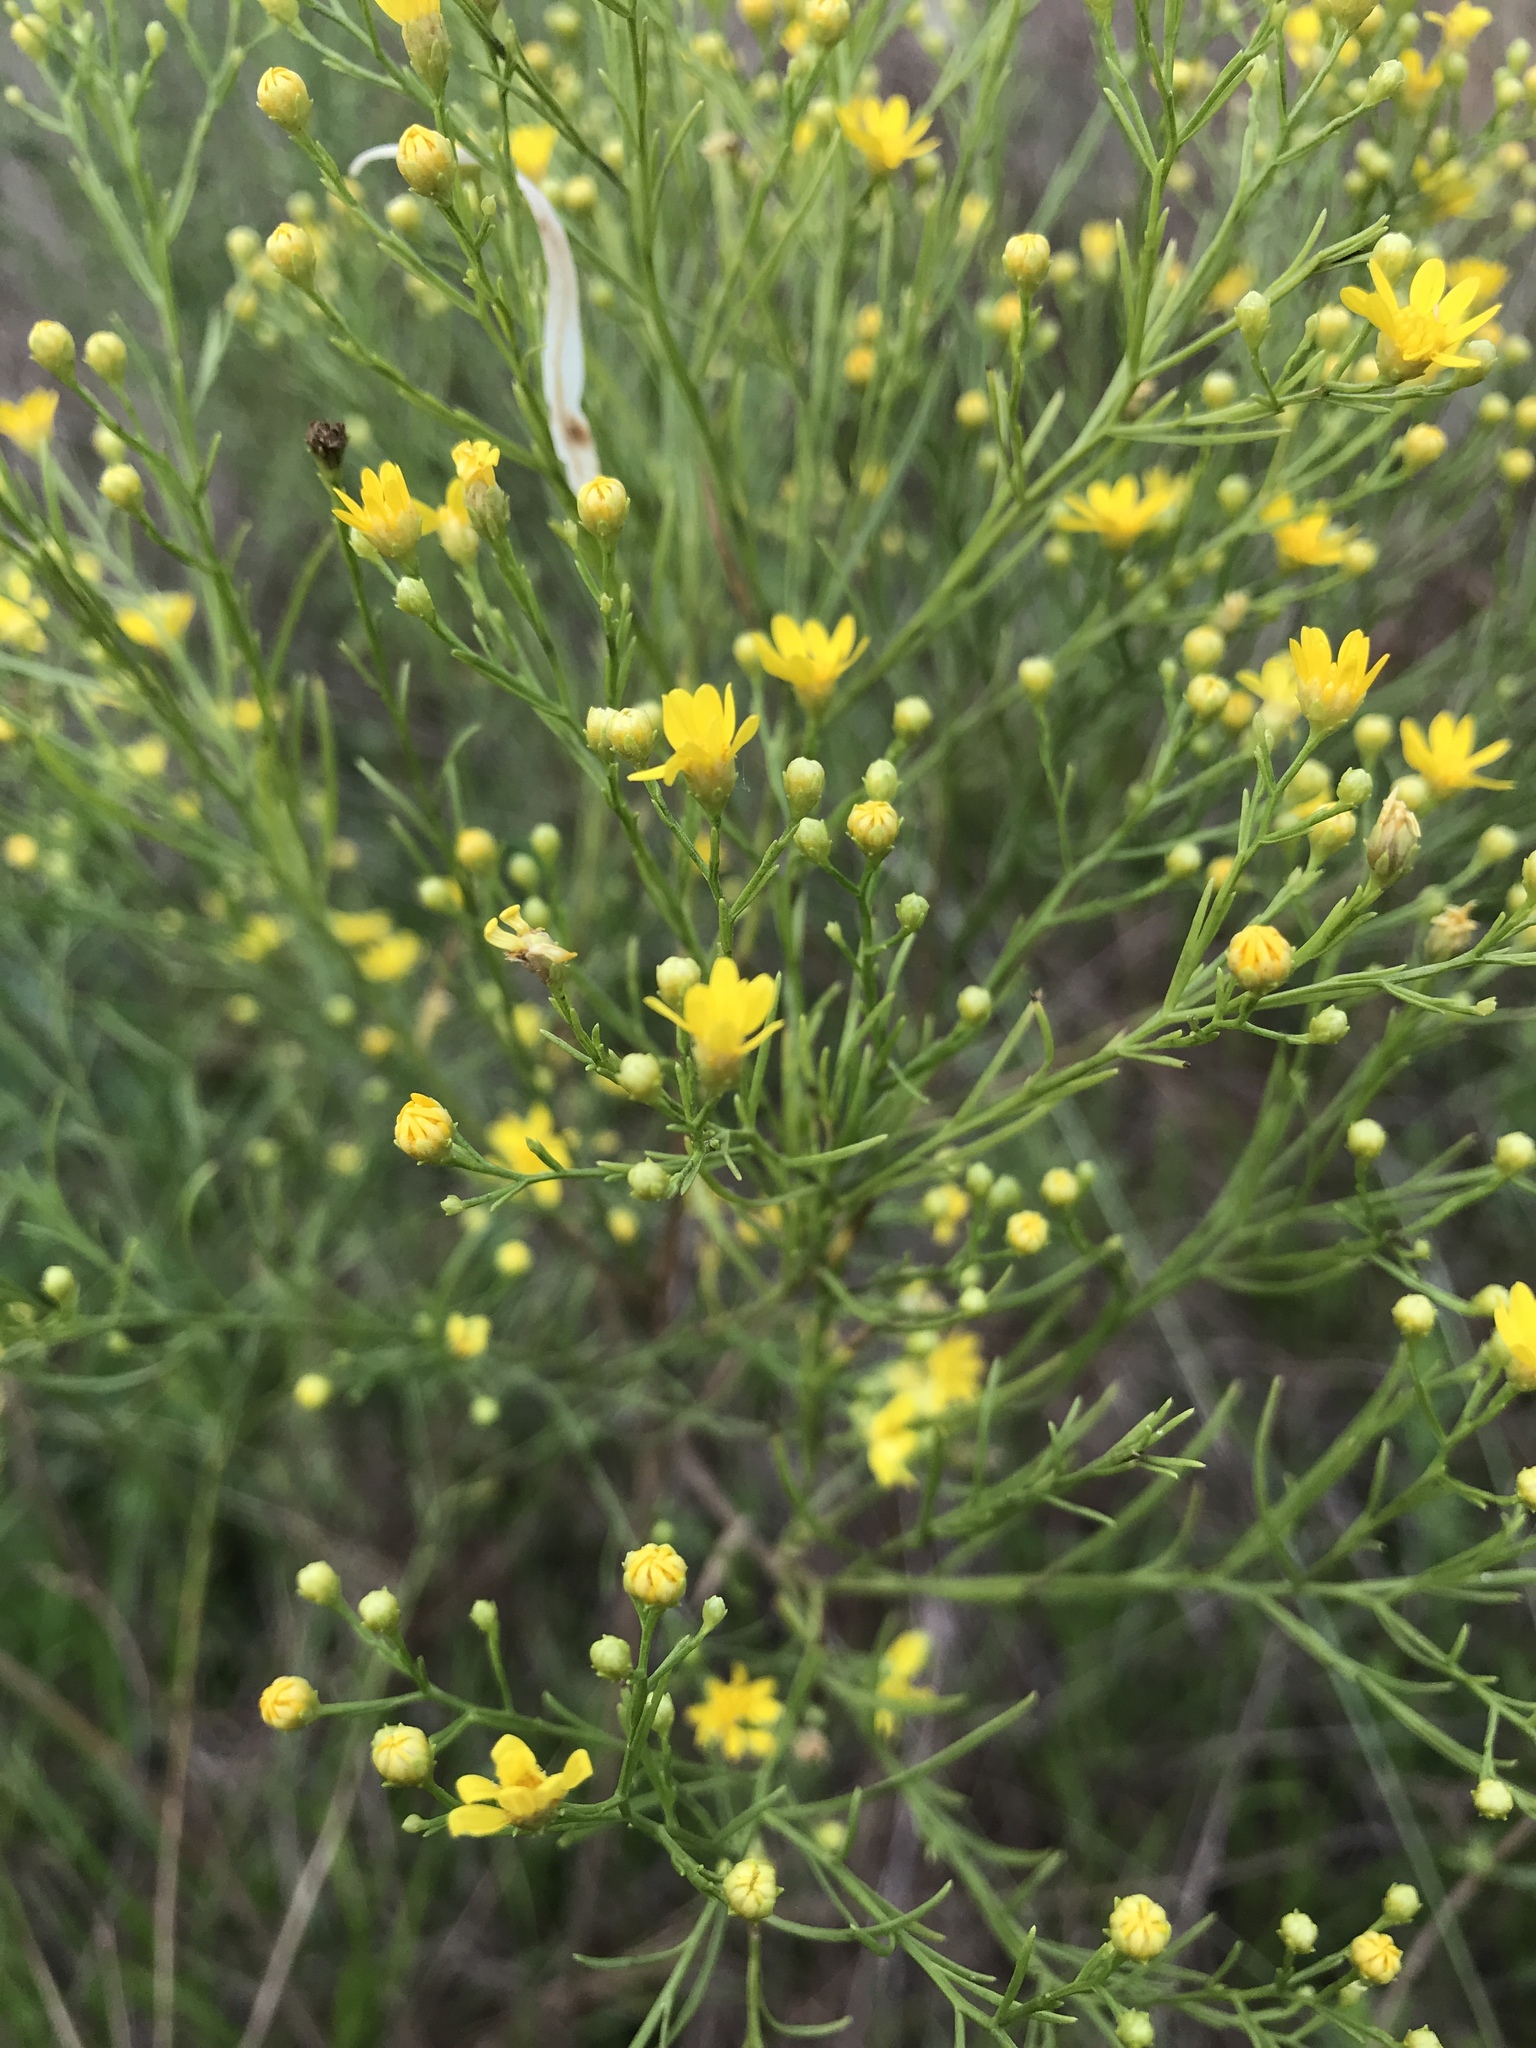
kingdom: Plantae
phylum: Tracheophyta
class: Magnoliopsida
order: Asterales
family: Asteraceae
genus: Amphiachyris
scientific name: Amphiachyris dracunculoides
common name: Broomweed
